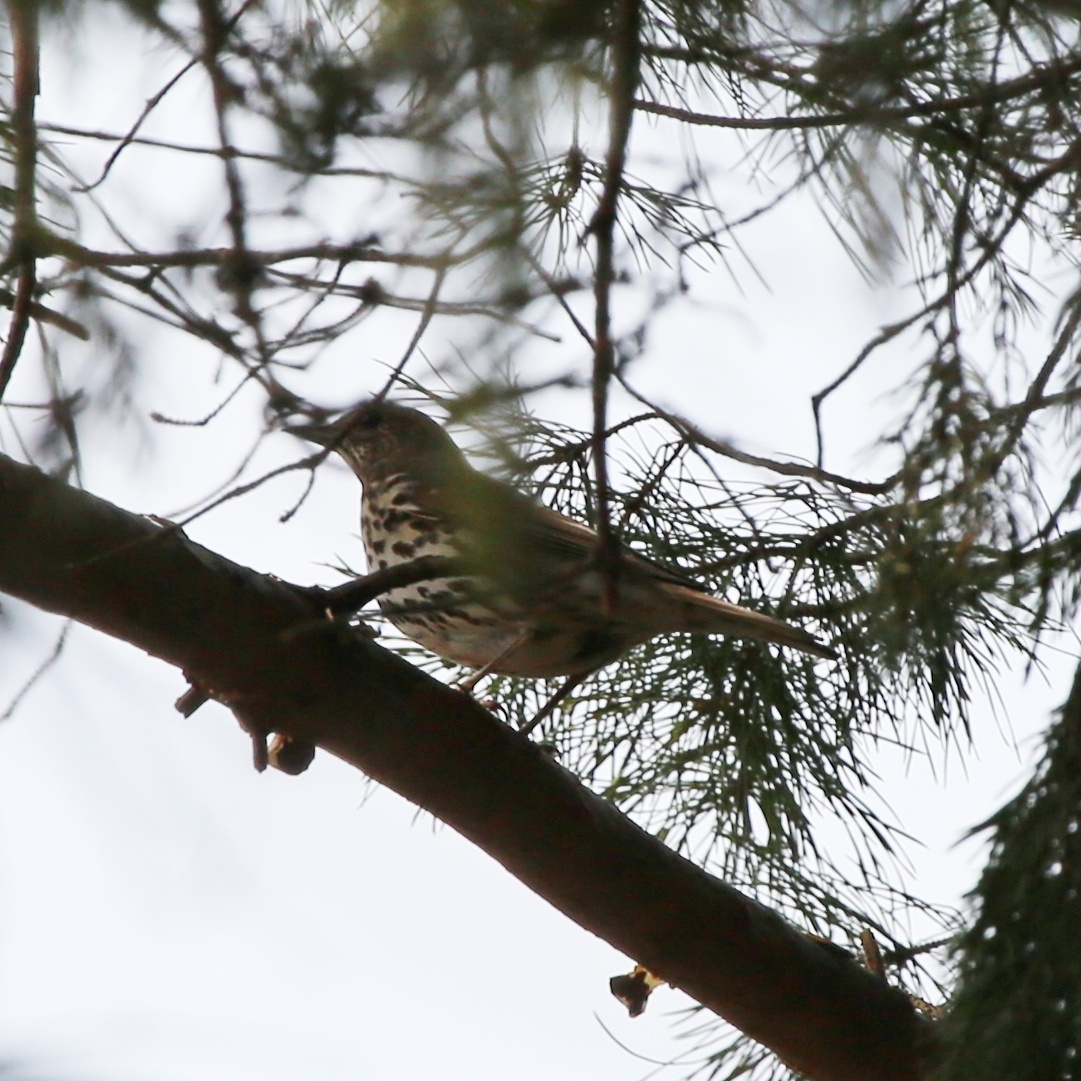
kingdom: Animalia
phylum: Chordata
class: Aves
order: Passeriformes
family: Turdidae
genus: Turdus
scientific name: Turdus philomelos
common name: Song thrush
